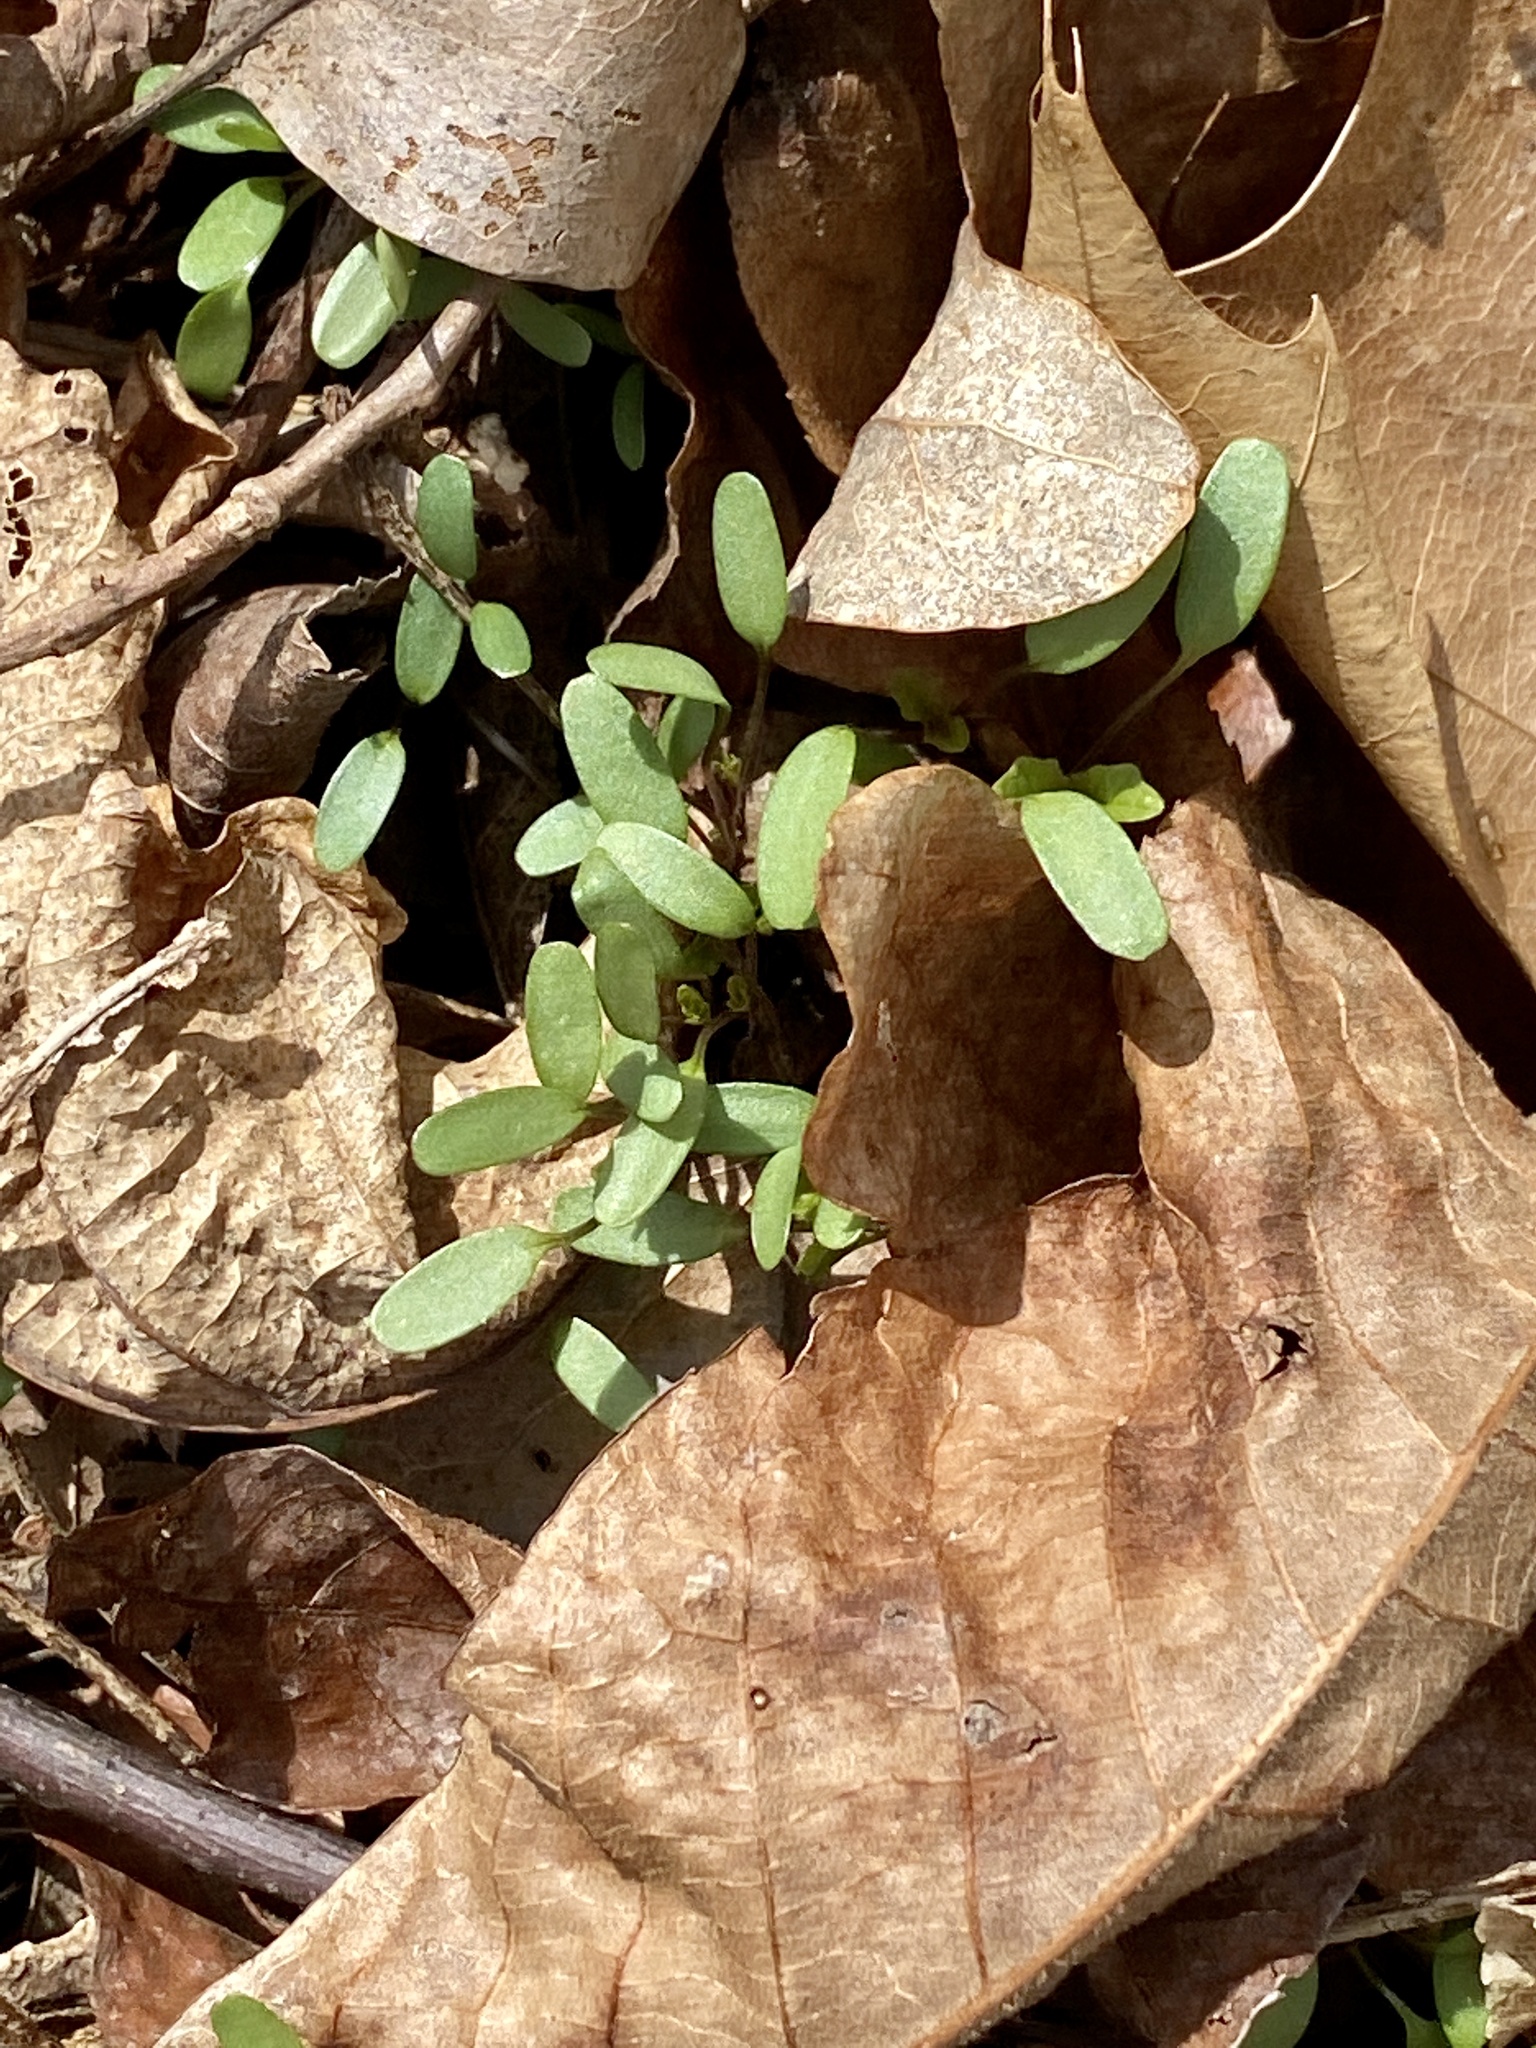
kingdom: Plantae
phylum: Tracheophyta
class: Magnoliopsida
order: Brassicales
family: Brassicaceae
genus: Alliaria
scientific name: Alliaria petiolata
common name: Garlic mustard
